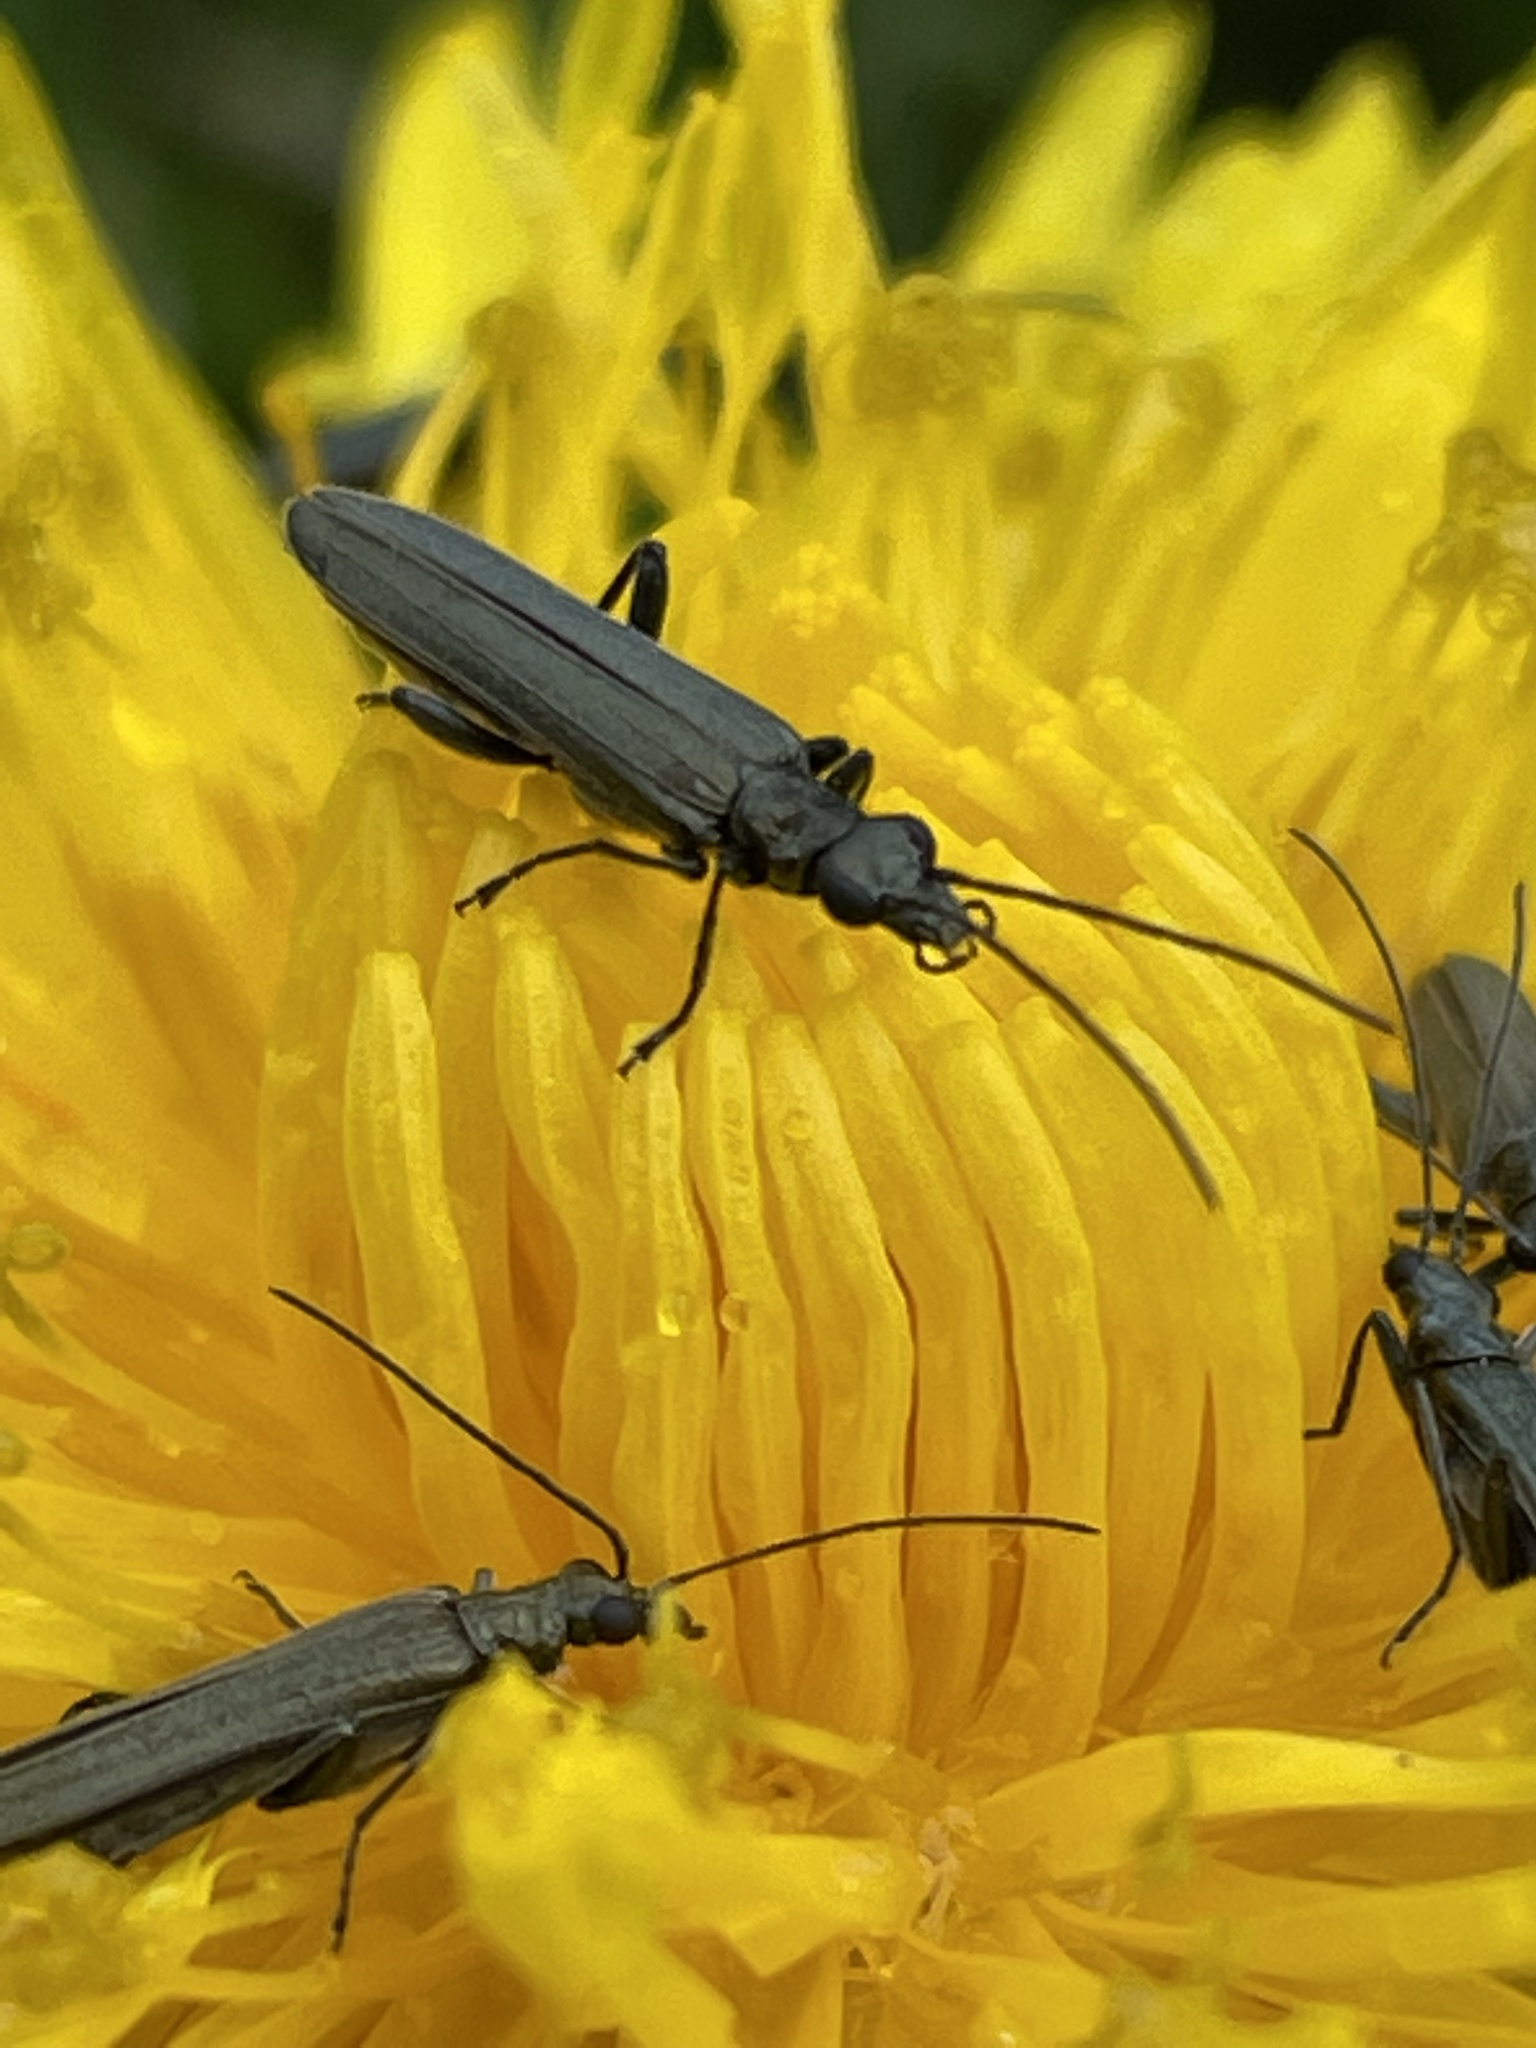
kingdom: Animalia
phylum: Arthropoda
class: Insecta
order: Coleoptera
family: Oedemeridae
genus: Oedemera
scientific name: Oedemera lurida
